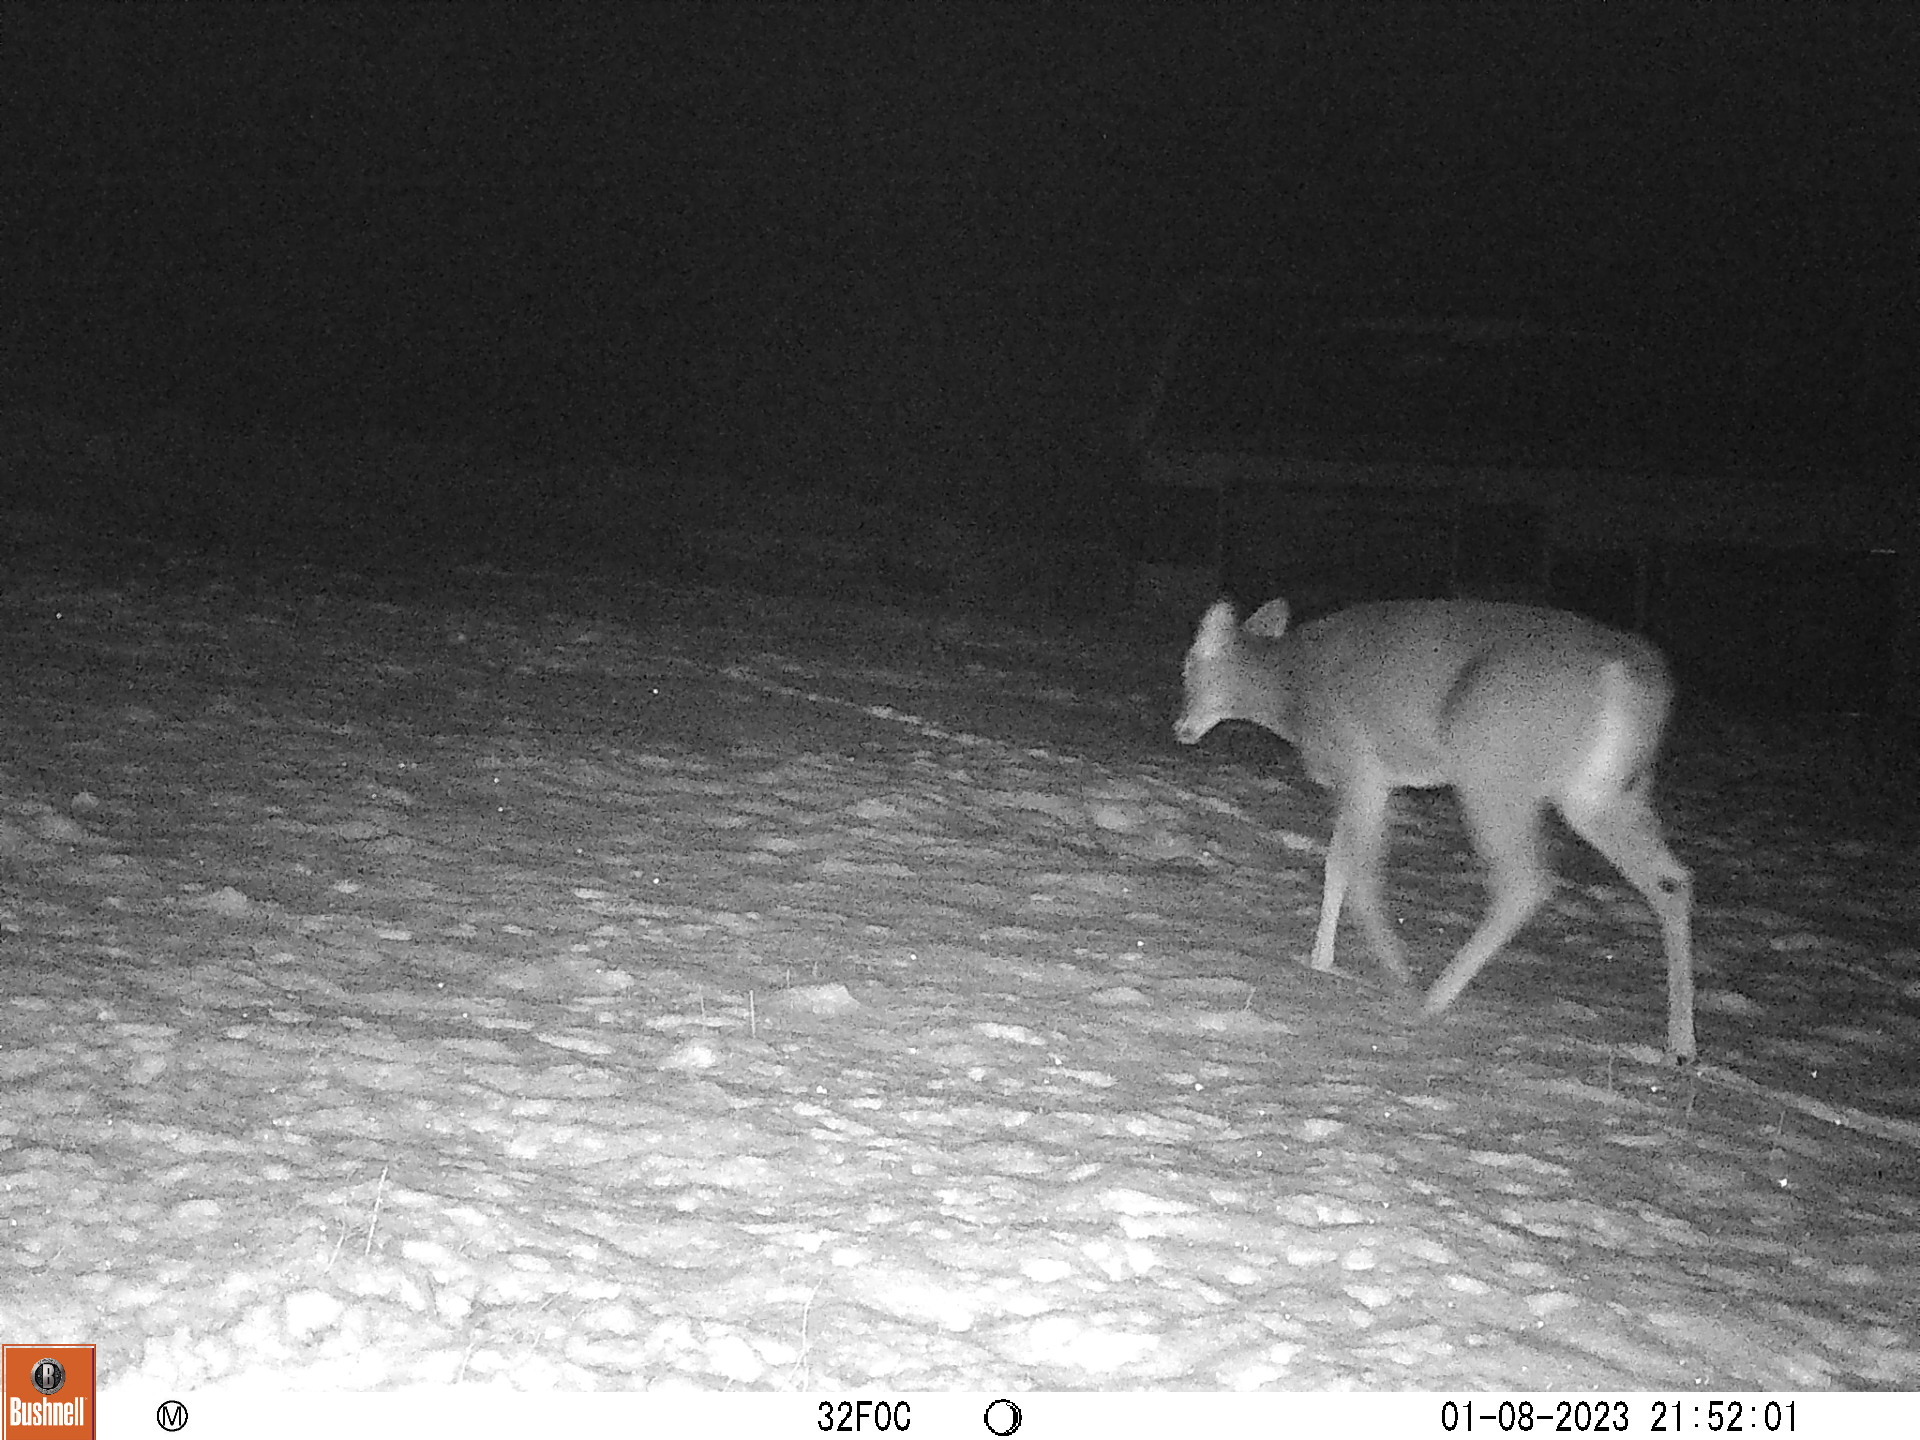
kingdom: Animalia
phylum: Chordata
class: Mammalia
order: Artiodactyla
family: Cervidae
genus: Odocoileus
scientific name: Odocoileus virginianus
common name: White-tailed deer
